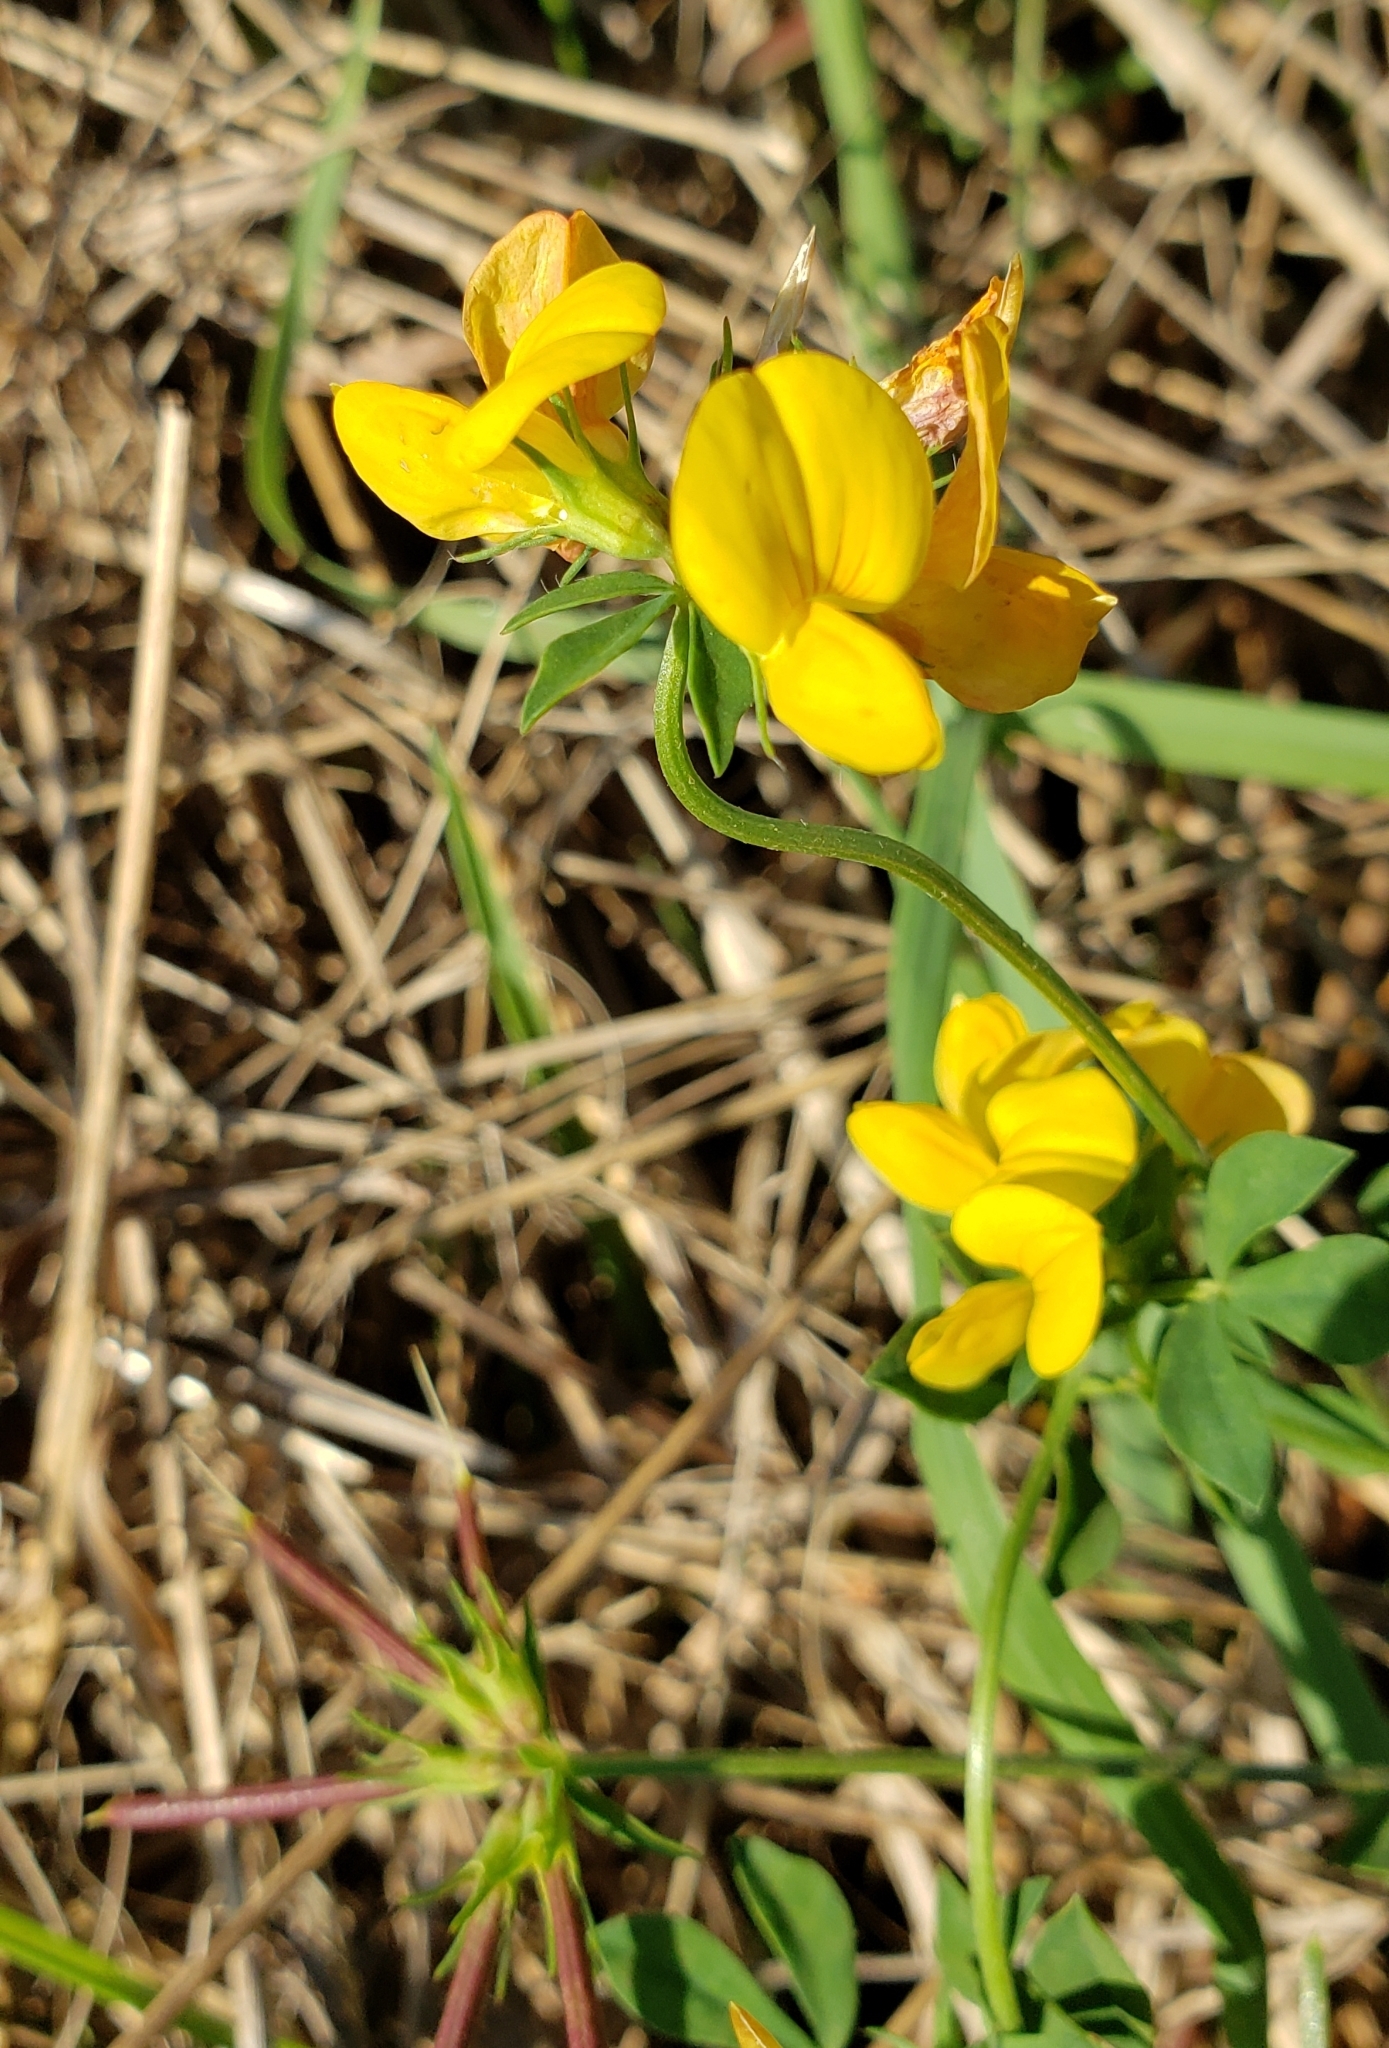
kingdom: Plantae
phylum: Tracheophyta
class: Magnoliopsida
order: Fabales
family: Fabaceae
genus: Lotus
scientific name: Lotus corniculatus
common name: Common bird's-foot-trefoil
